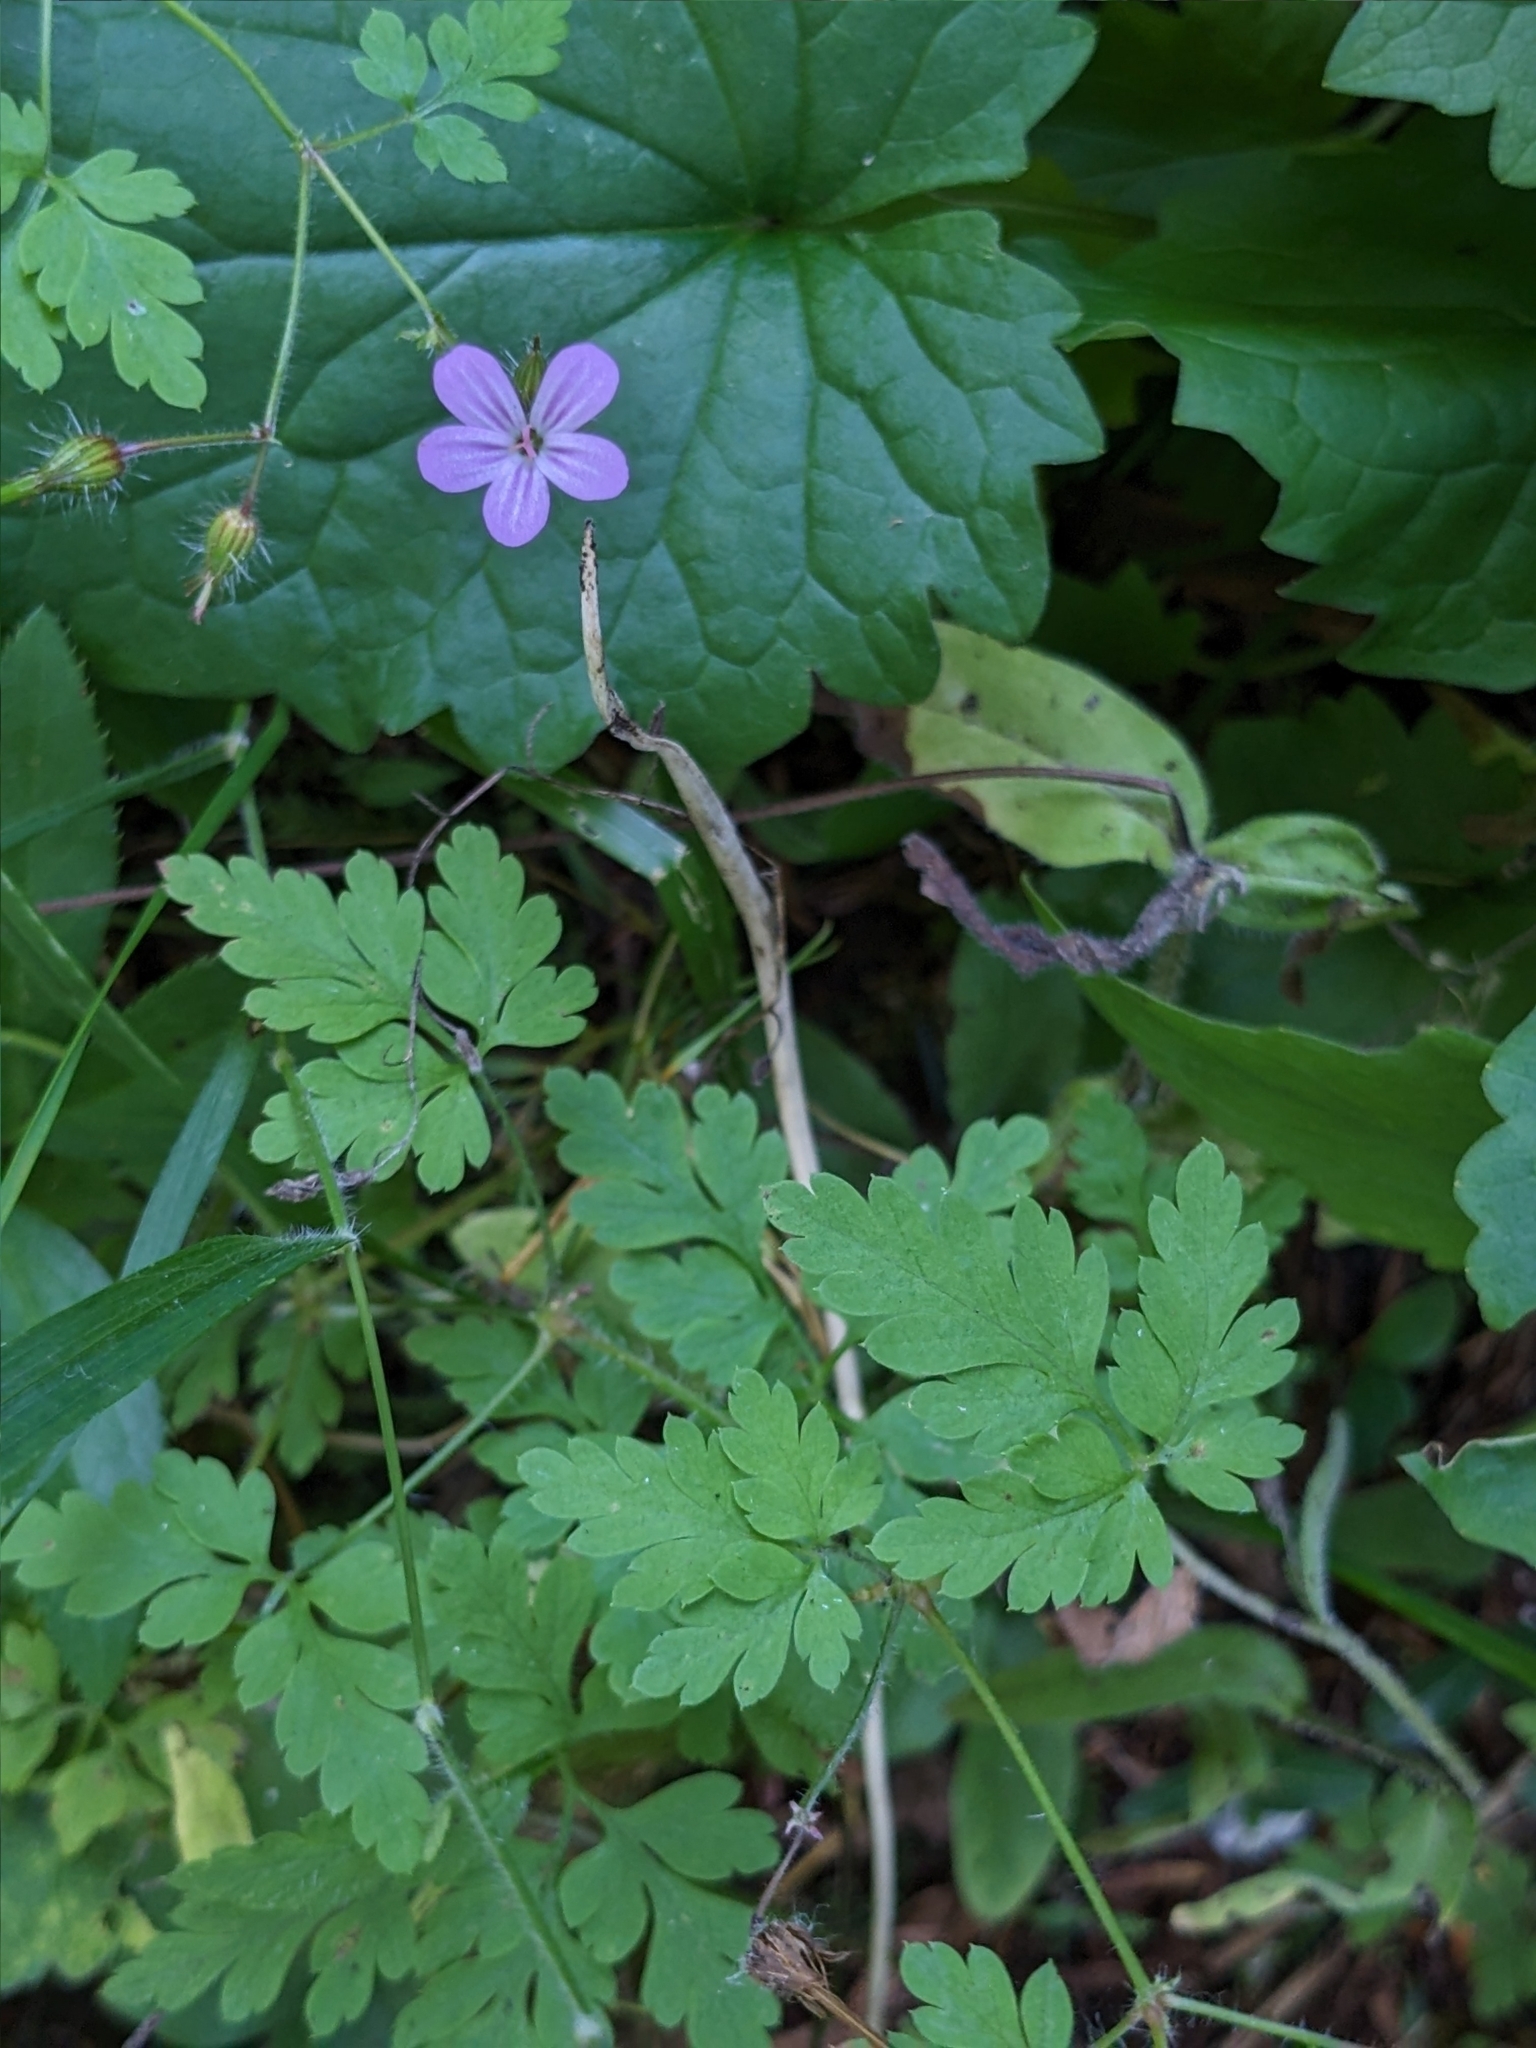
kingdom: Plantae
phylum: Tracheophyta
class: Magnoliopsida
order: Geraniales
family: Geraniaceae
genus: Geranium
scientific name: Geranium robertianum
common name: Herb-robert
